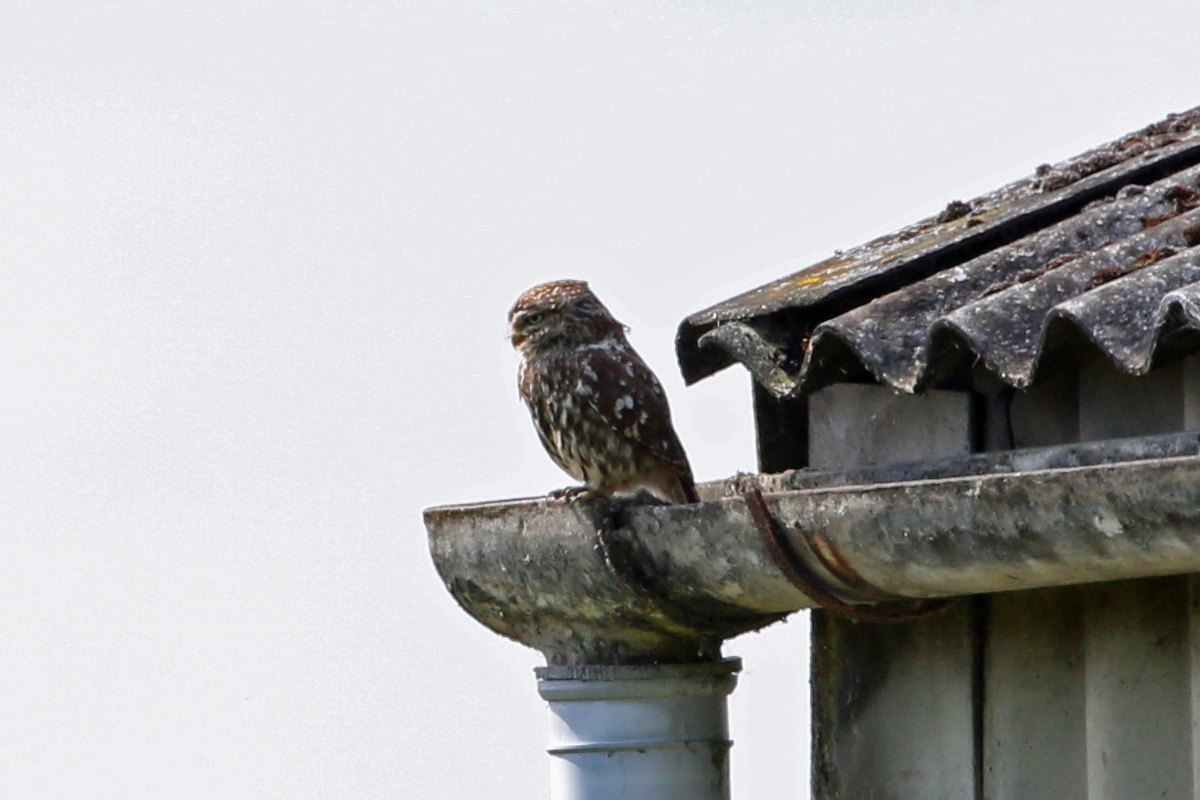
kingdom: Animalia
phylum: Chordata
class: Aves
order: Strigiformes
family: Strigidae
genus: Athene
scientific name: Athene noctua
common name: Little owl
